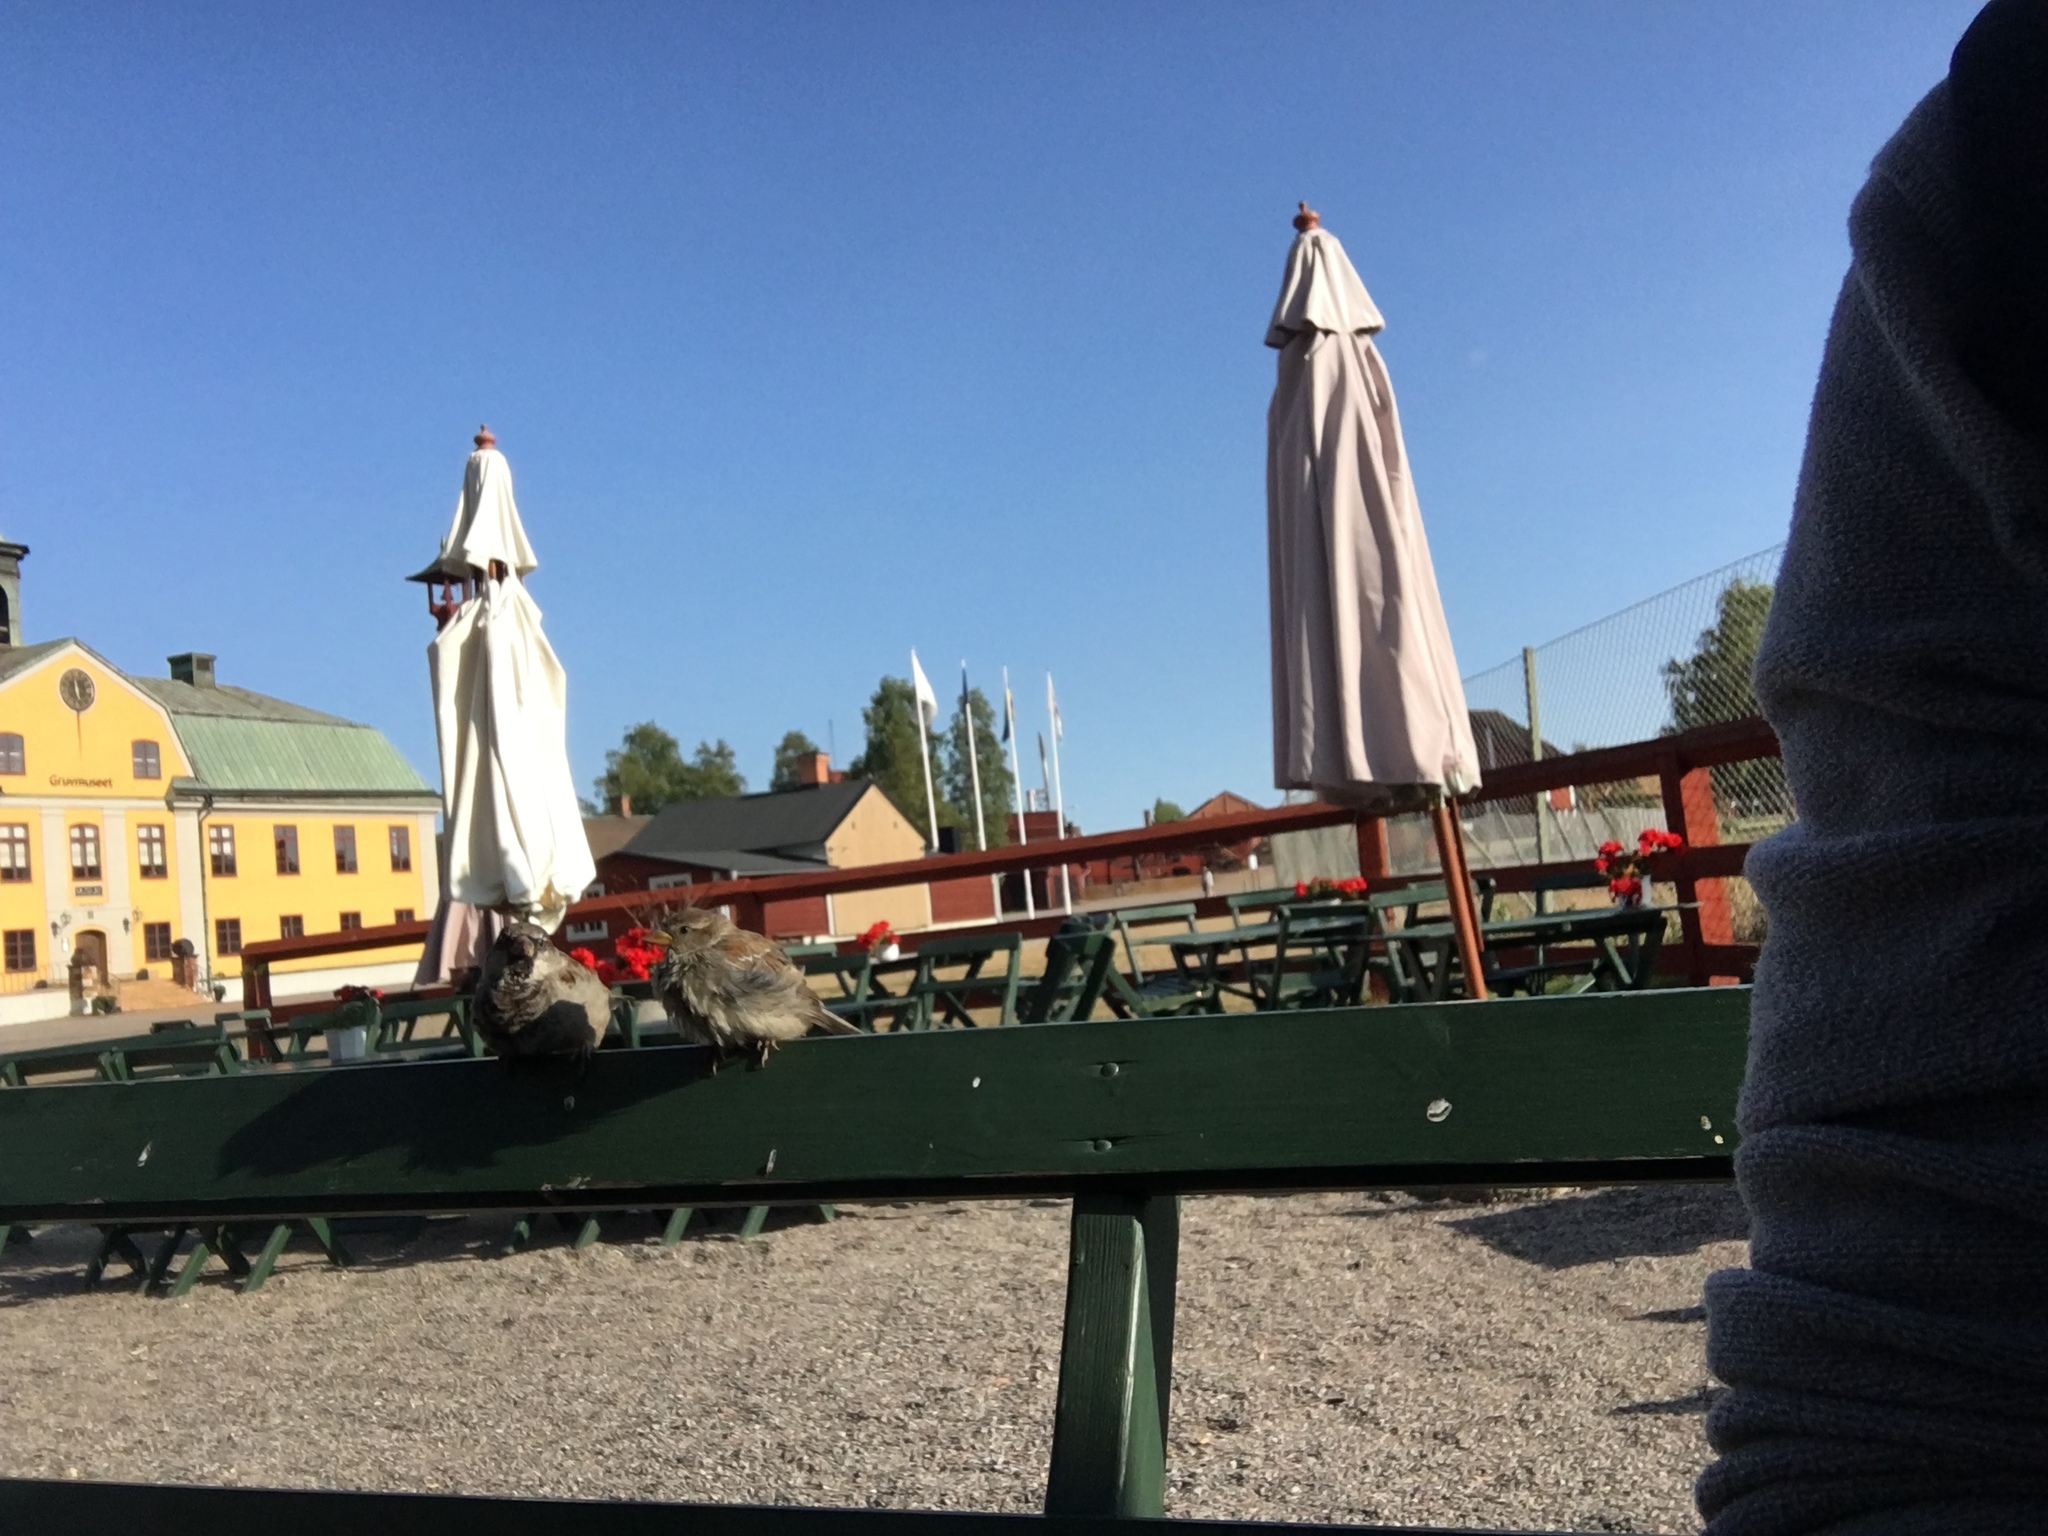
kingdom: Animalia
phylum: Chordata
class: Aves
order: Passeriformes
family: Passeridae
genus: Passer
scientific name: Passer domesticus
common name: House sparrow
